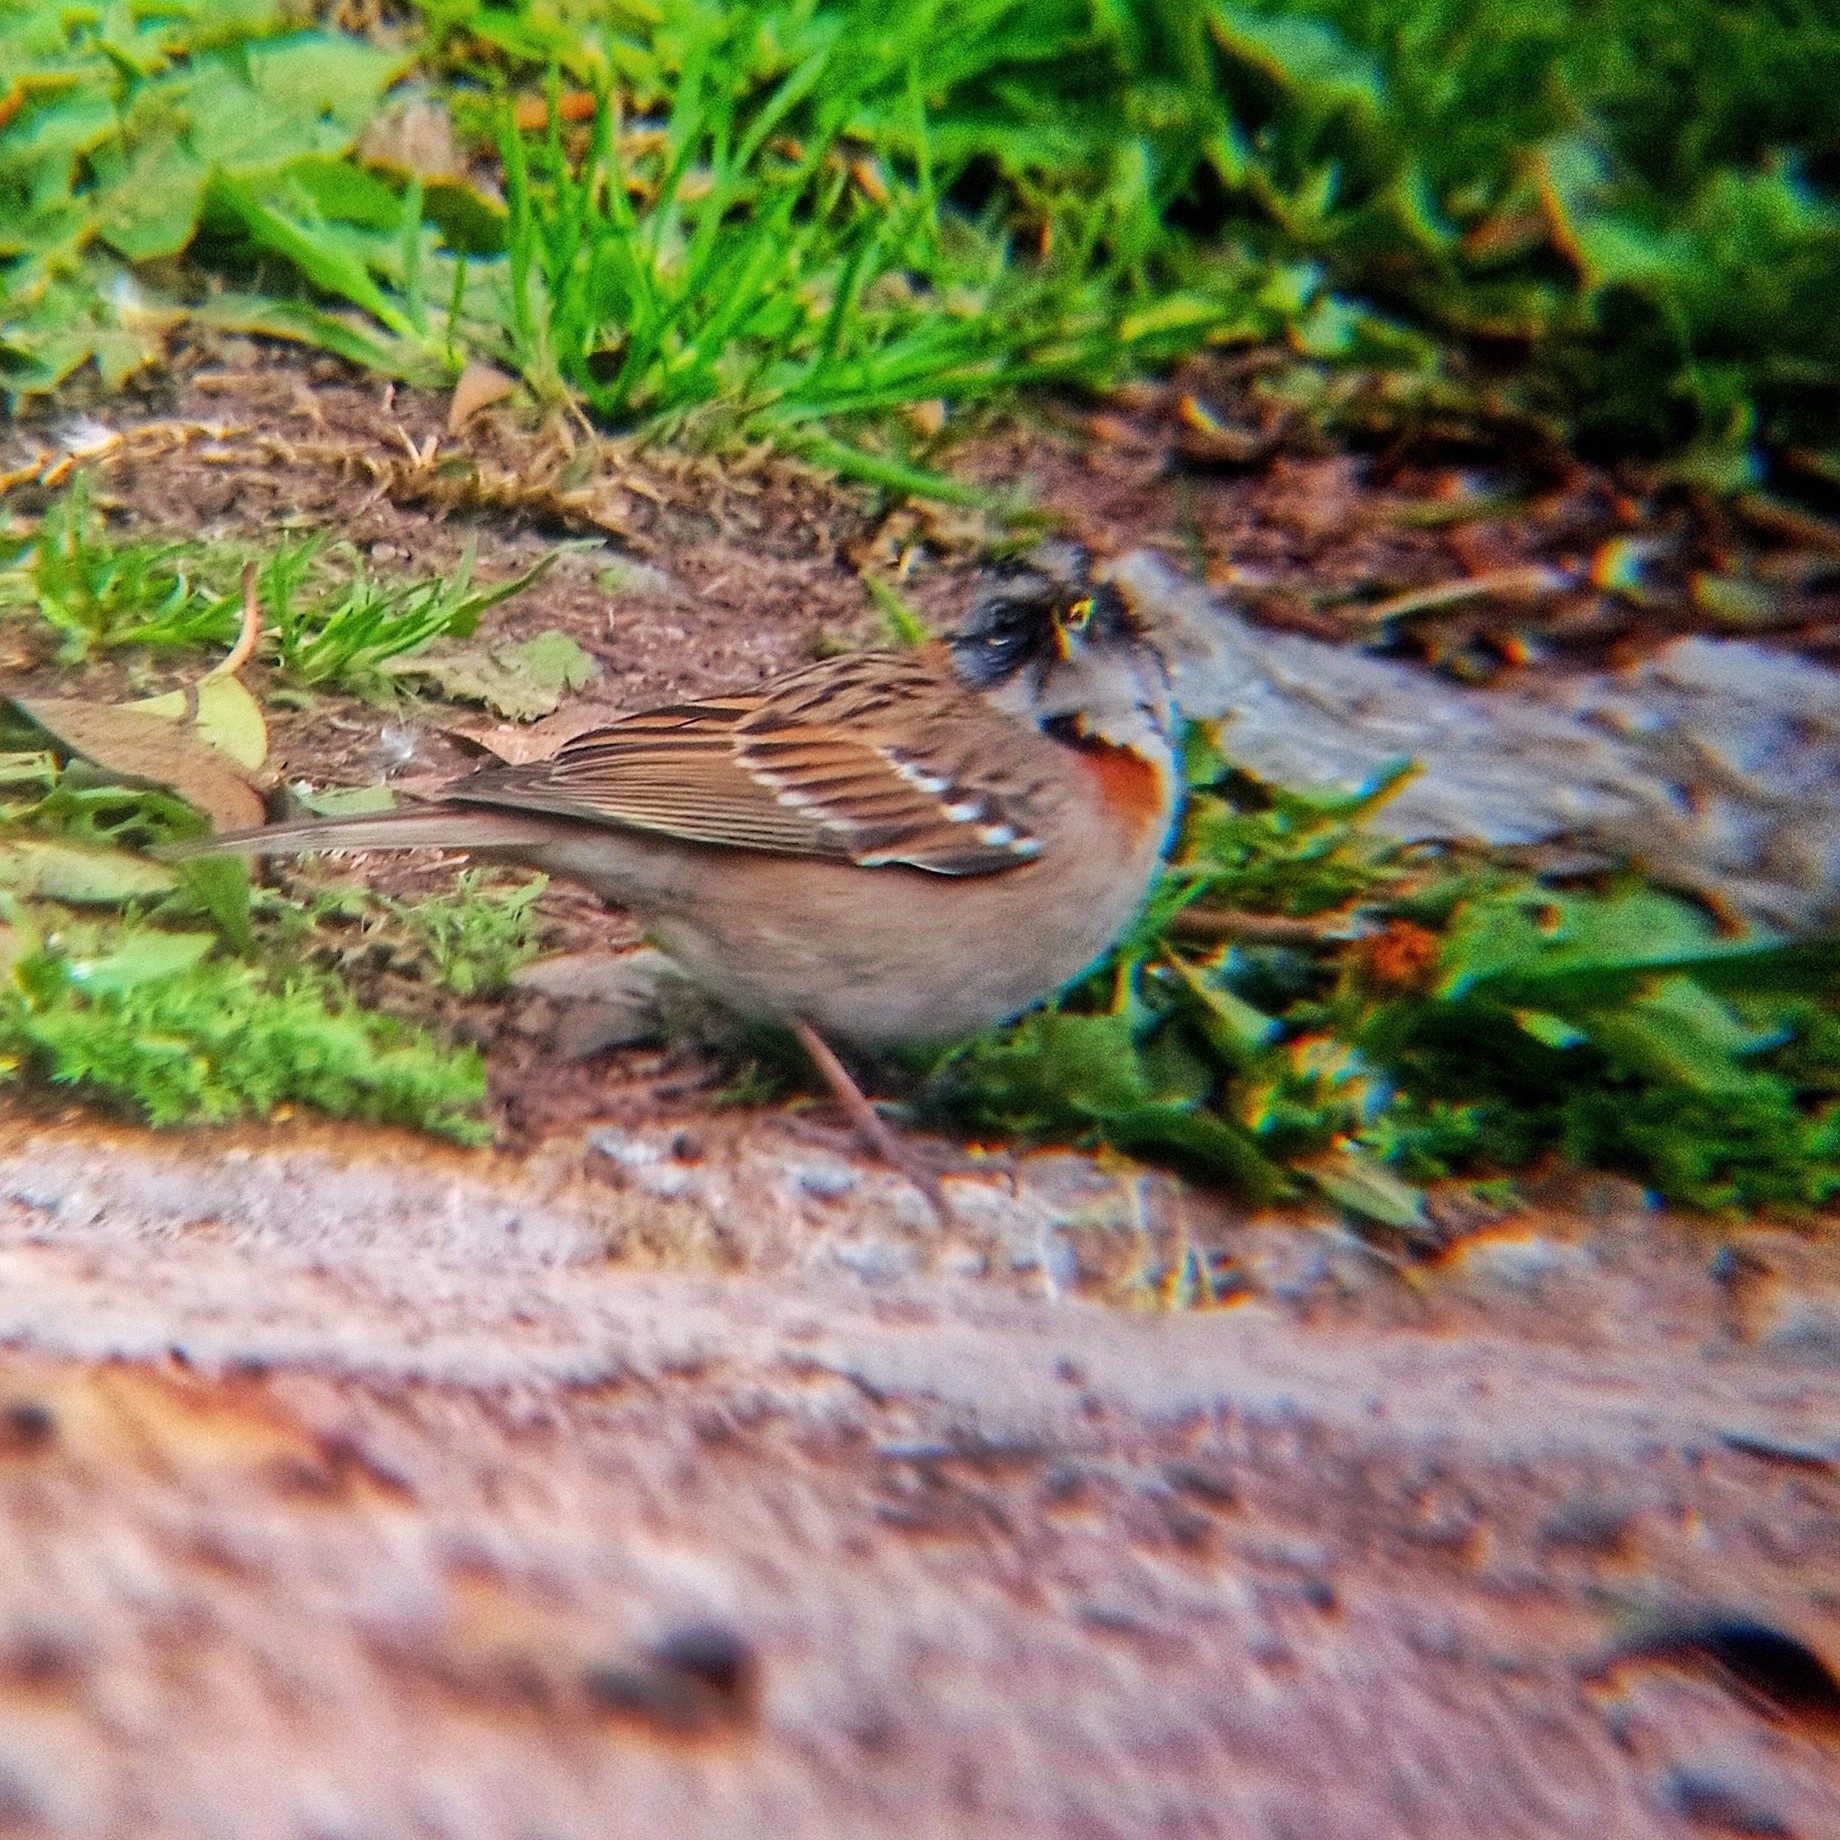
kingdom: Animalia
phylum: Chordata
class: Aves
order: Passeriformes
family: Passerellidae
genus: Zonotrichia
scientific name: Zonotrichia capensis
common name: Rufous-collared sparrow
